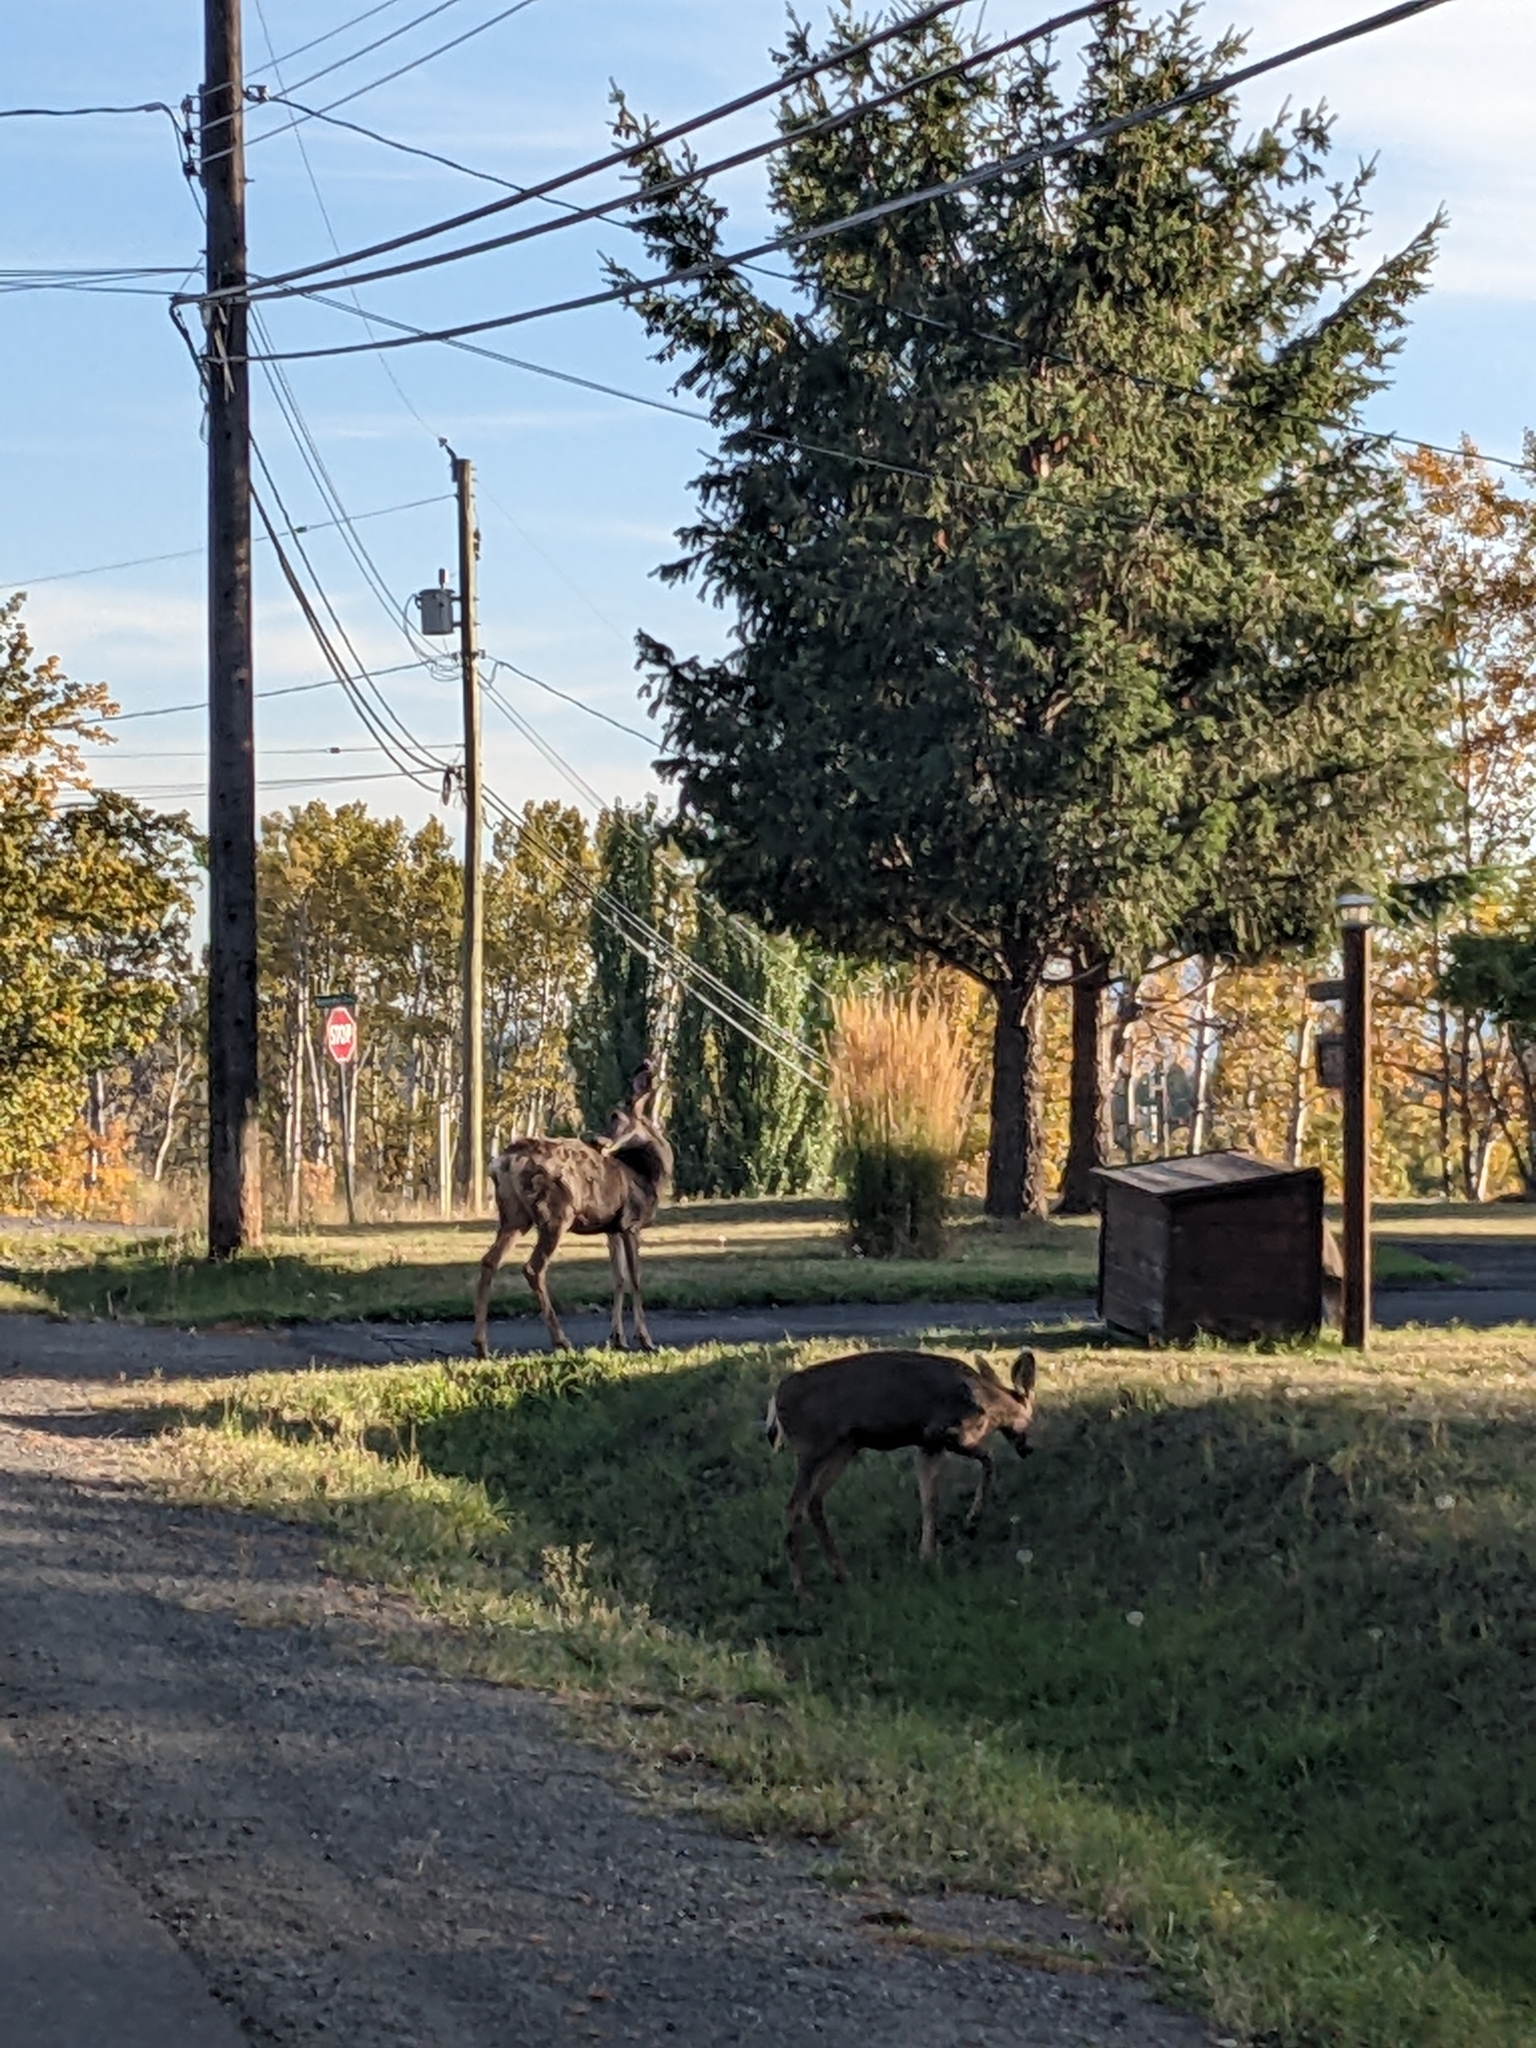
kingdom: Animalia
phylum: Chordata
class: Mammalia
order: Artiodactyla
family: Cervidae
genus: Odocoileus
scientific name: Odocoileus hemionus
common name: Mule deer
